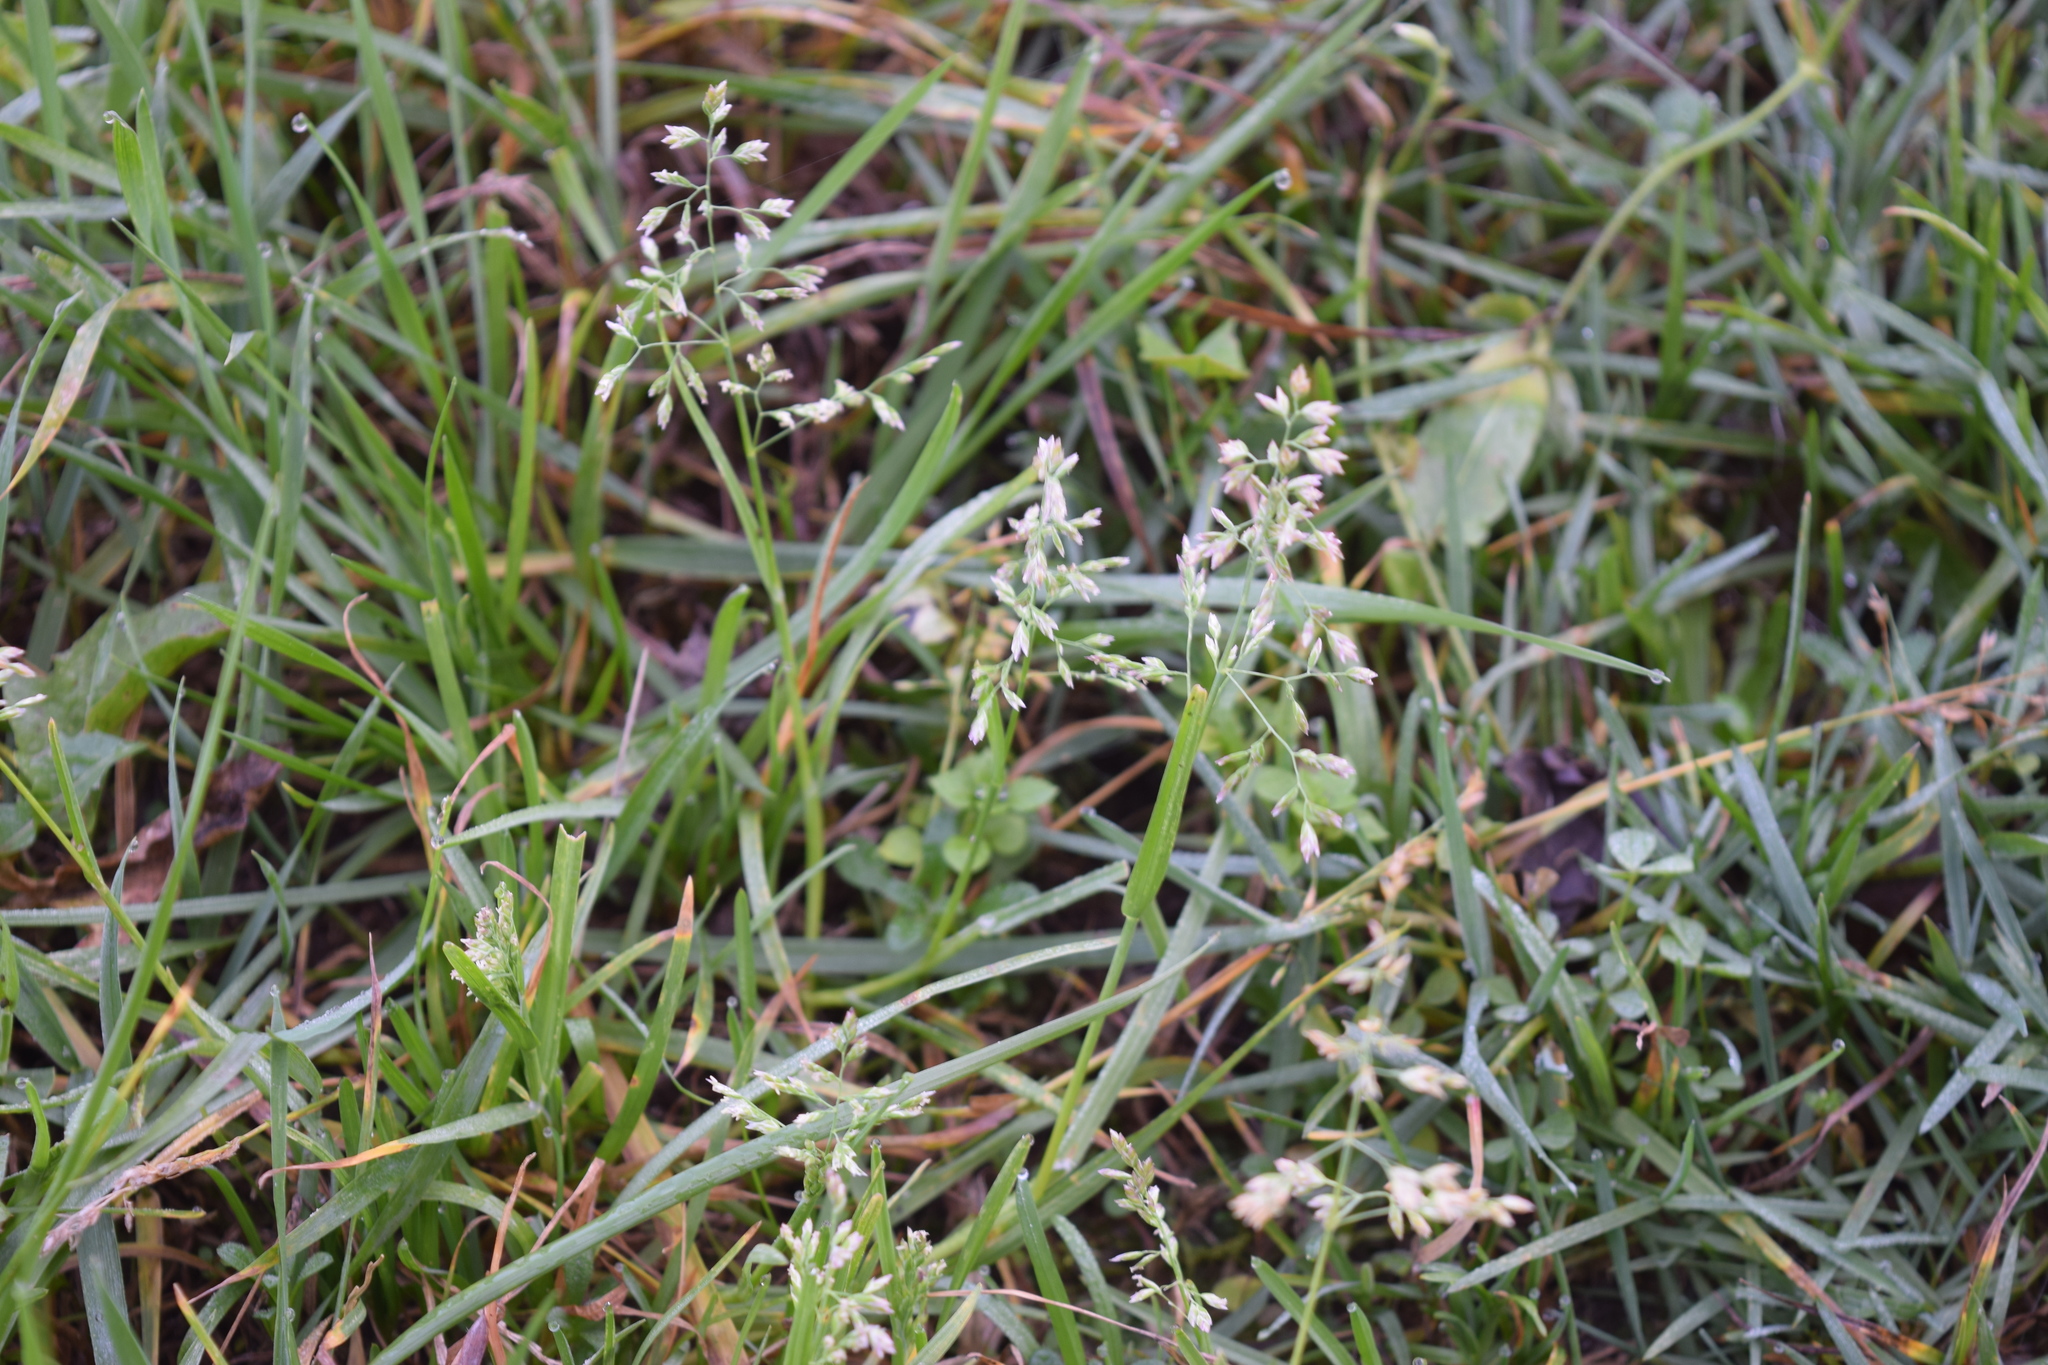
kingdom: Plantae
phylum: Tracheophyta
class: Liliopsida
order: Poales
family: Poaceae
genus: Poa
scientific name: Poa annua
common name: Annual bluegrass
